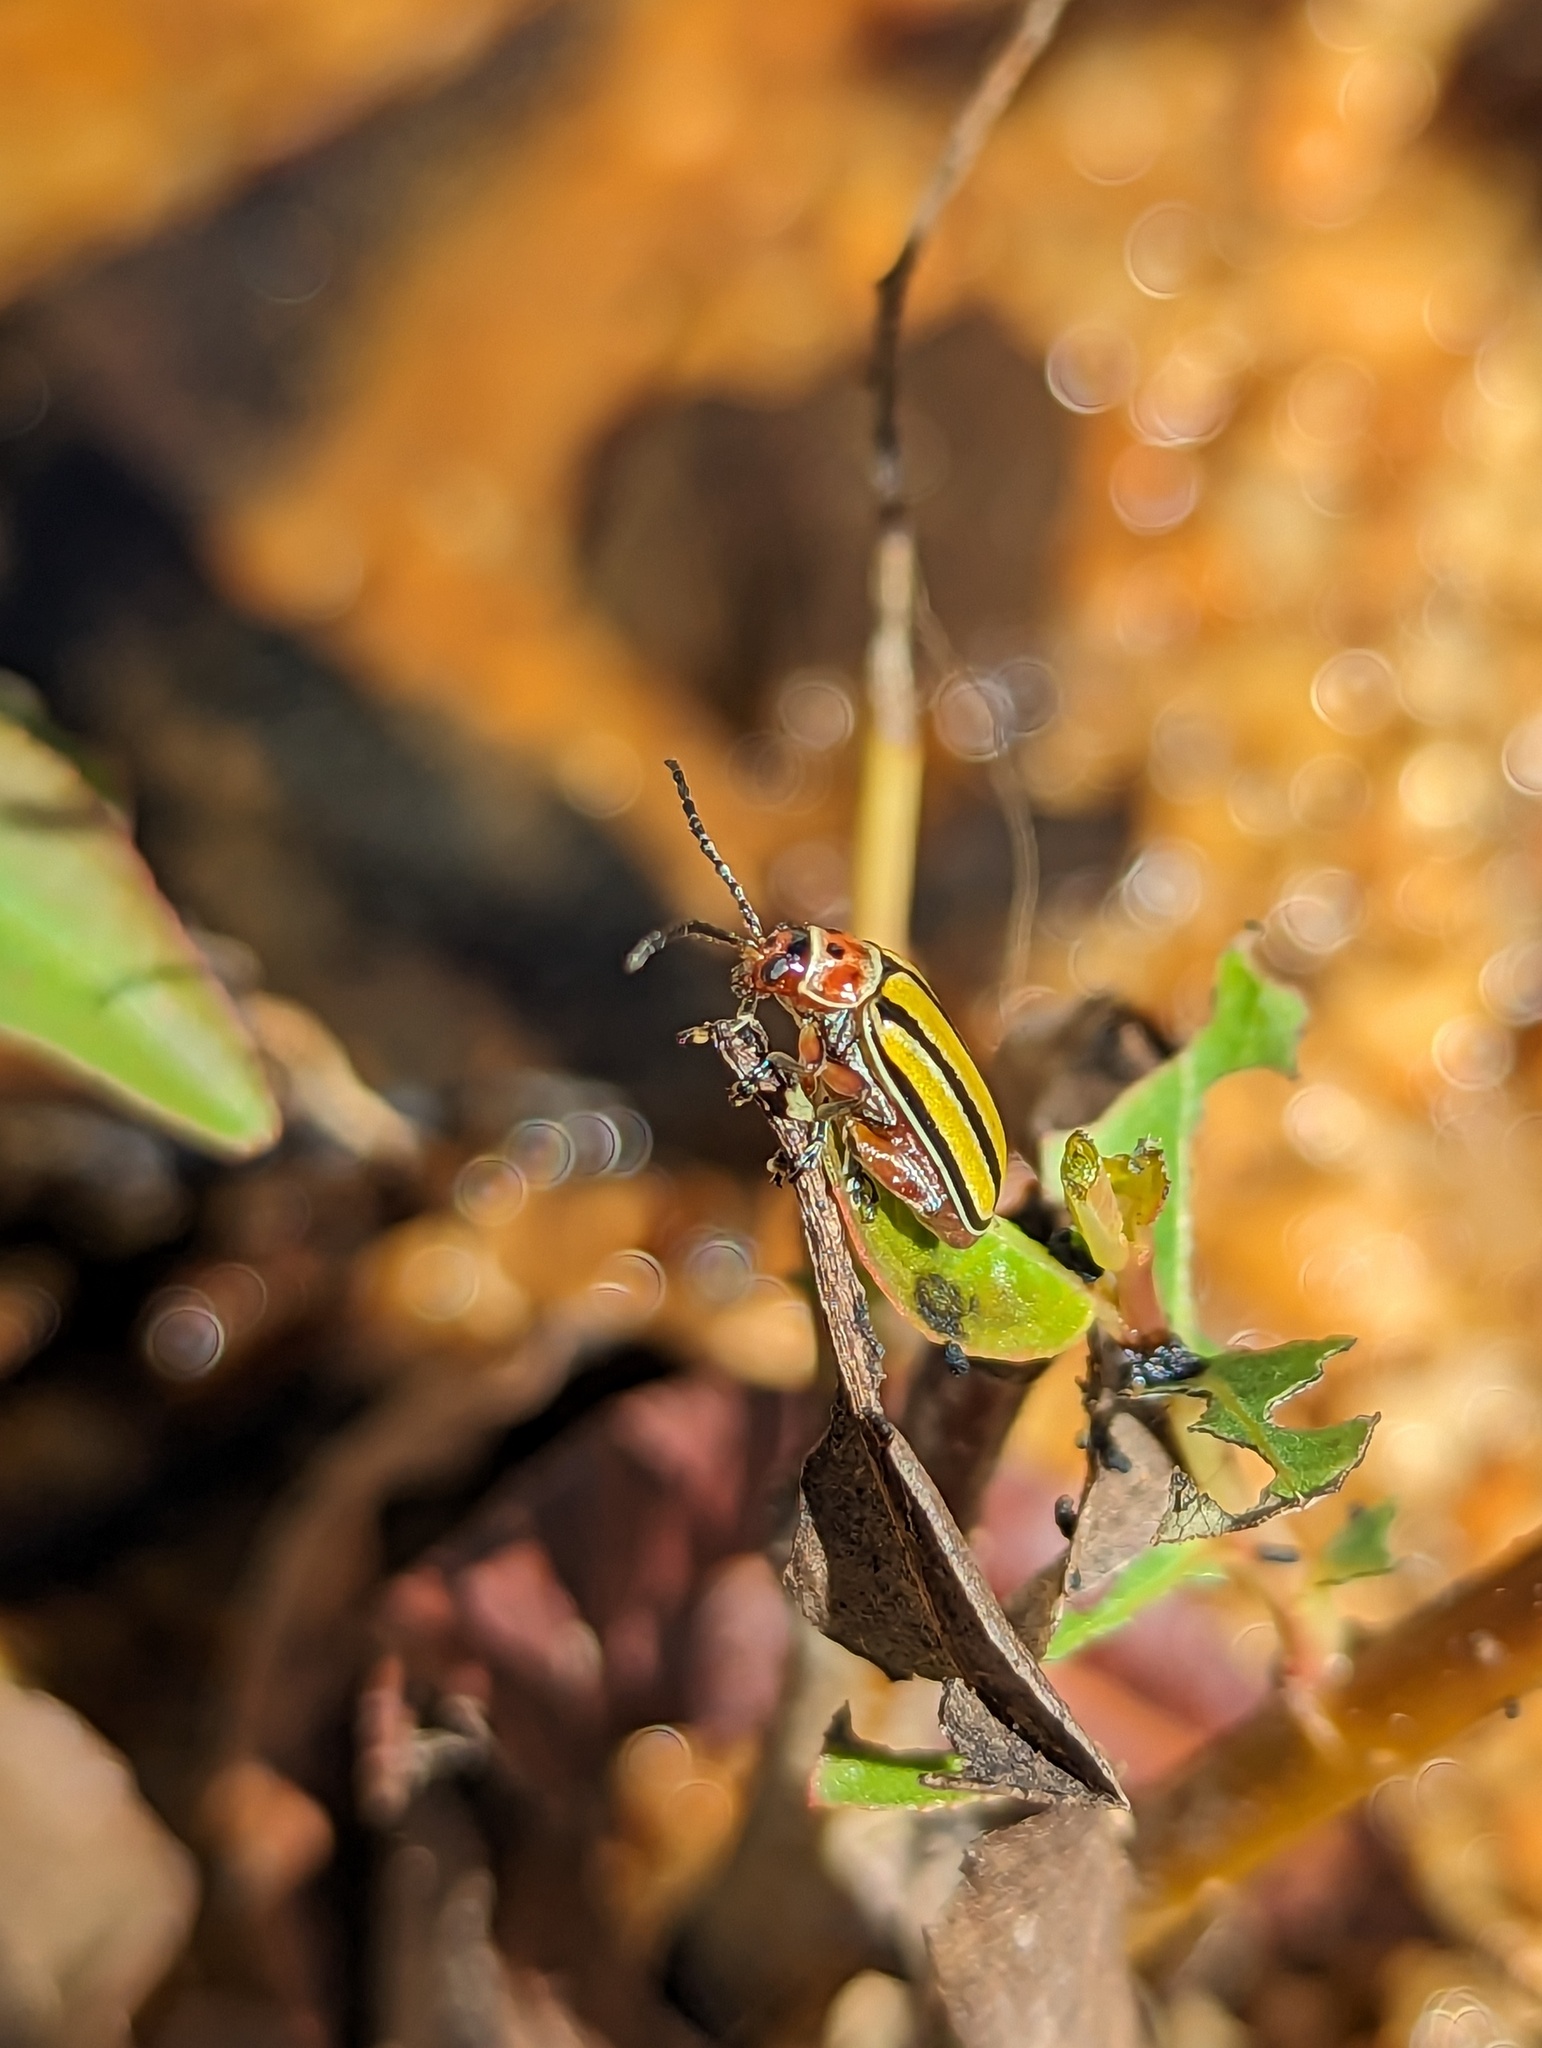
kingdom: Animalia
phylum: Arthropoda
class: Insecta
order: Coleoptera
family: Chrysomelidae
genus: Disonycha
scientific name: Disonycha fumata
